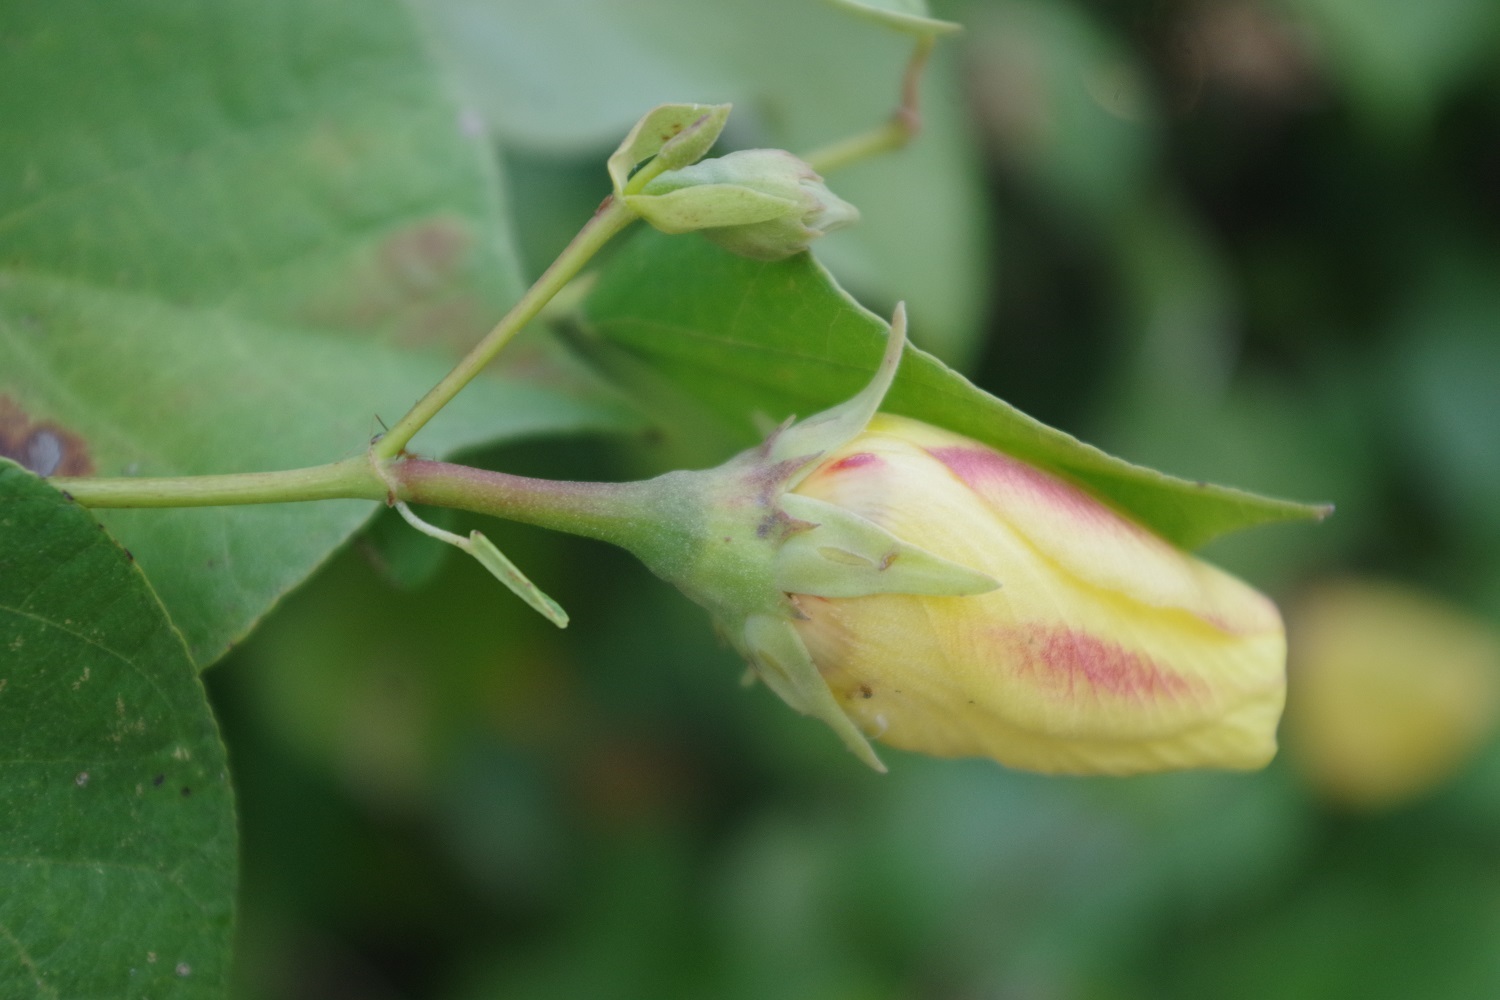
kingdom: Plantae
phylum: Tracheophyta
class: Magnoliopsida
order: Malvales
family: Malvaceae
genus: Talipariti
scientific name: Talipariti tiliaceum
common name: Sea hibiscus
